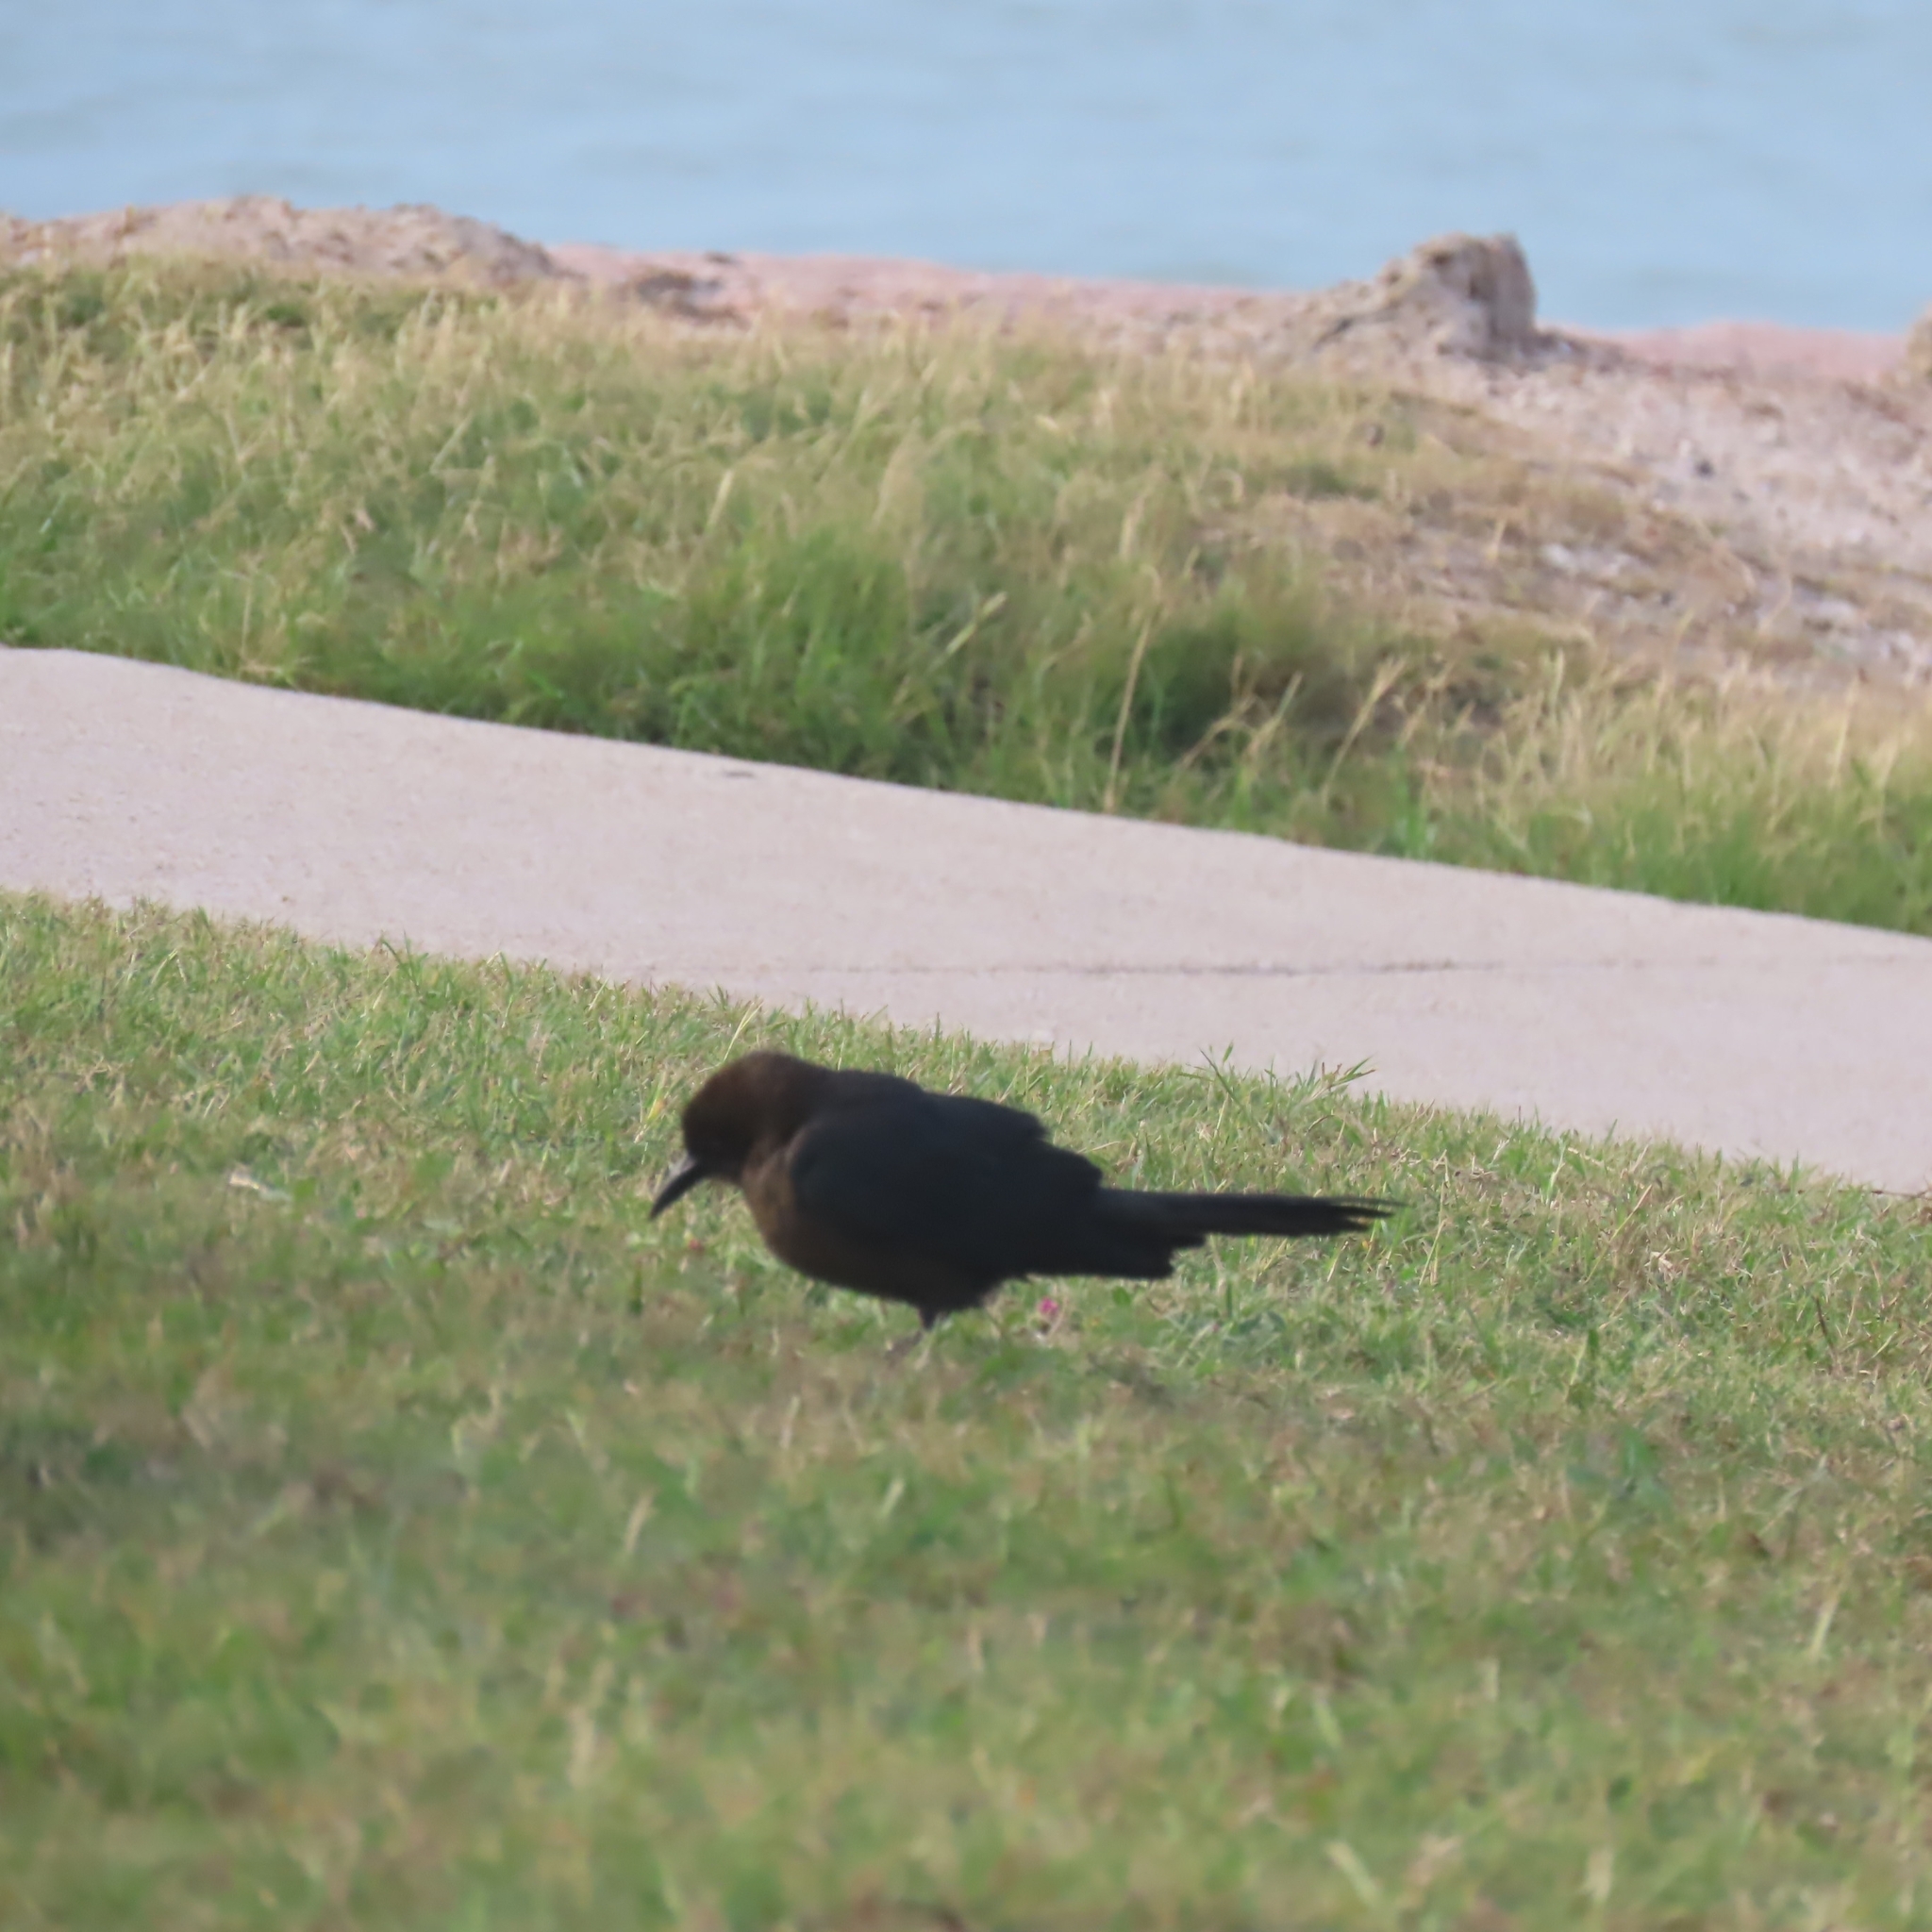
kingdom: Animalia
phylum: Chordata
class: Aves
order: Passeriformes
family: Icteridae
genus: Quiscalus
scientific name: Quiscalus mexicanus
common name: Great-tailed grackle
